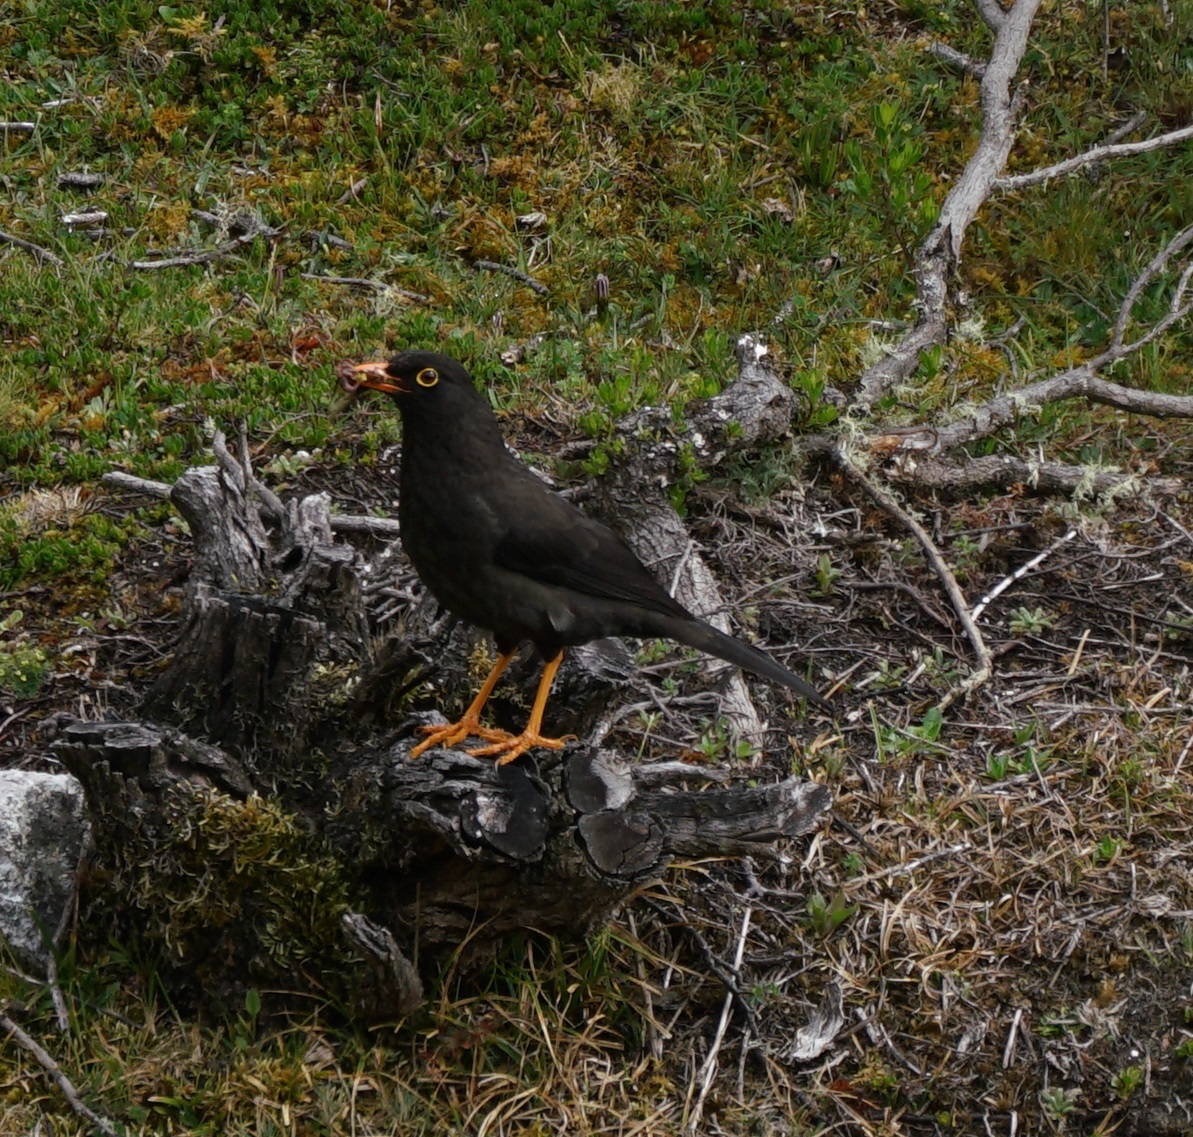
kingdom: Animalia
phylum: Chordata
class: Aves
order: Passeriformes
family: Turdidae
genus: Turdus
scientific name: Turdus fuscater
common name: Great thrush
